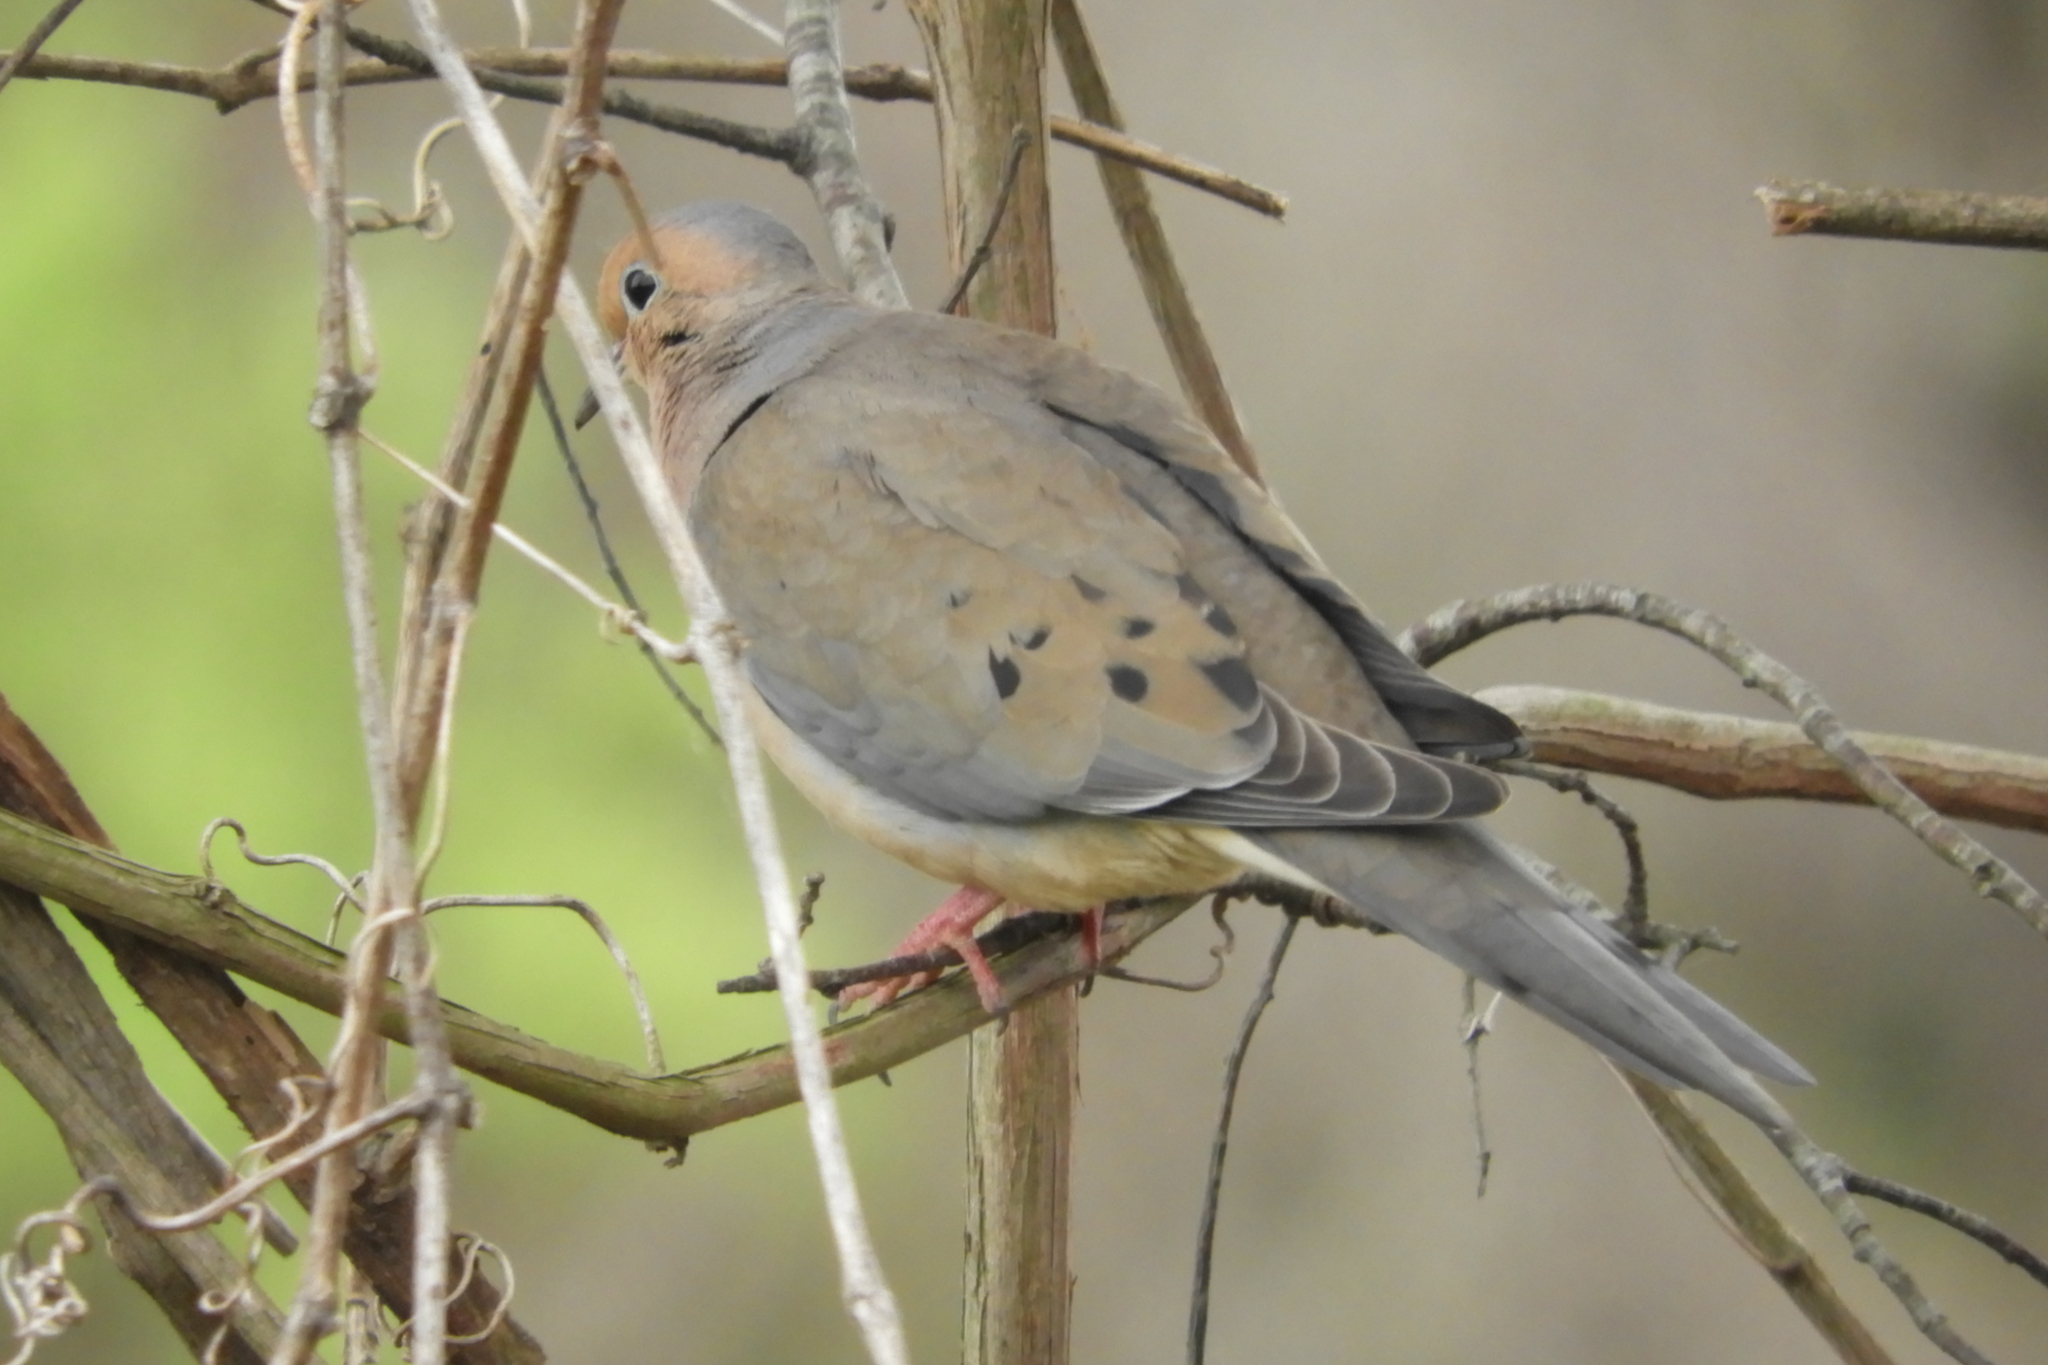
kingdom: Animalia
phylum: Chordata
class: Aves
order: Columbiformes
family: Columbidae
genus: Zenaida
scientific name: Zenaida macroura
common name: Mourning dove
